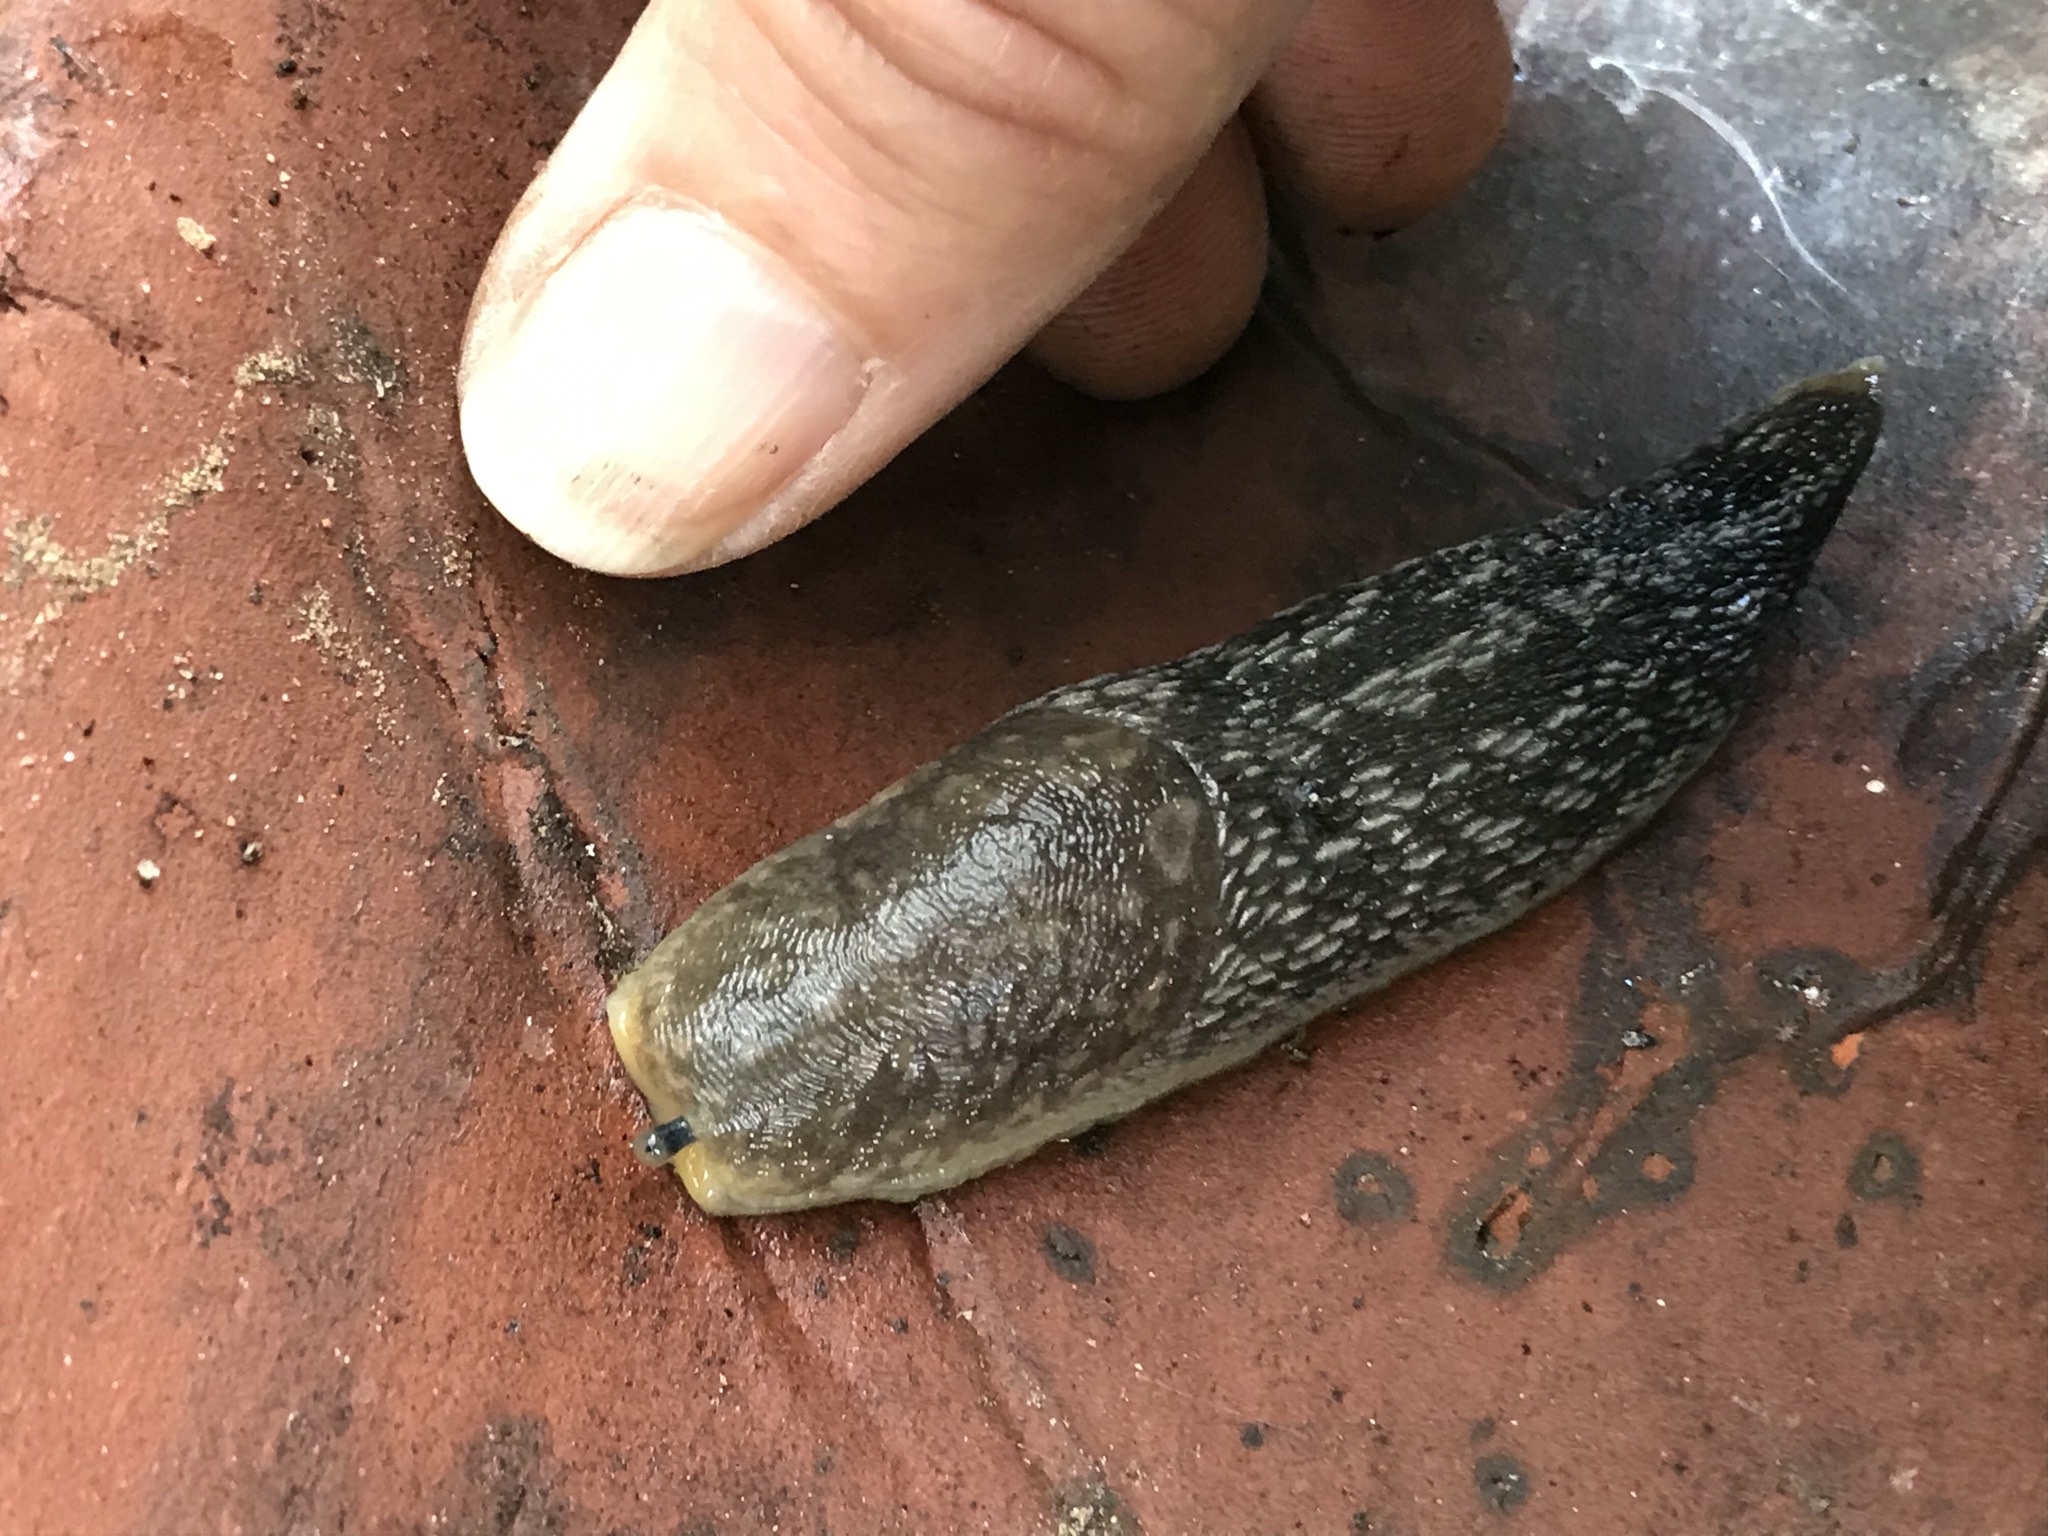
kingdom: Animalia
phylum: Mollusca
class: Gastropoda
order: Stylommatophora
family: Limacidae
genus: Limacus
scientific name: Limacus flavus
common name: Yellow gardenslug
